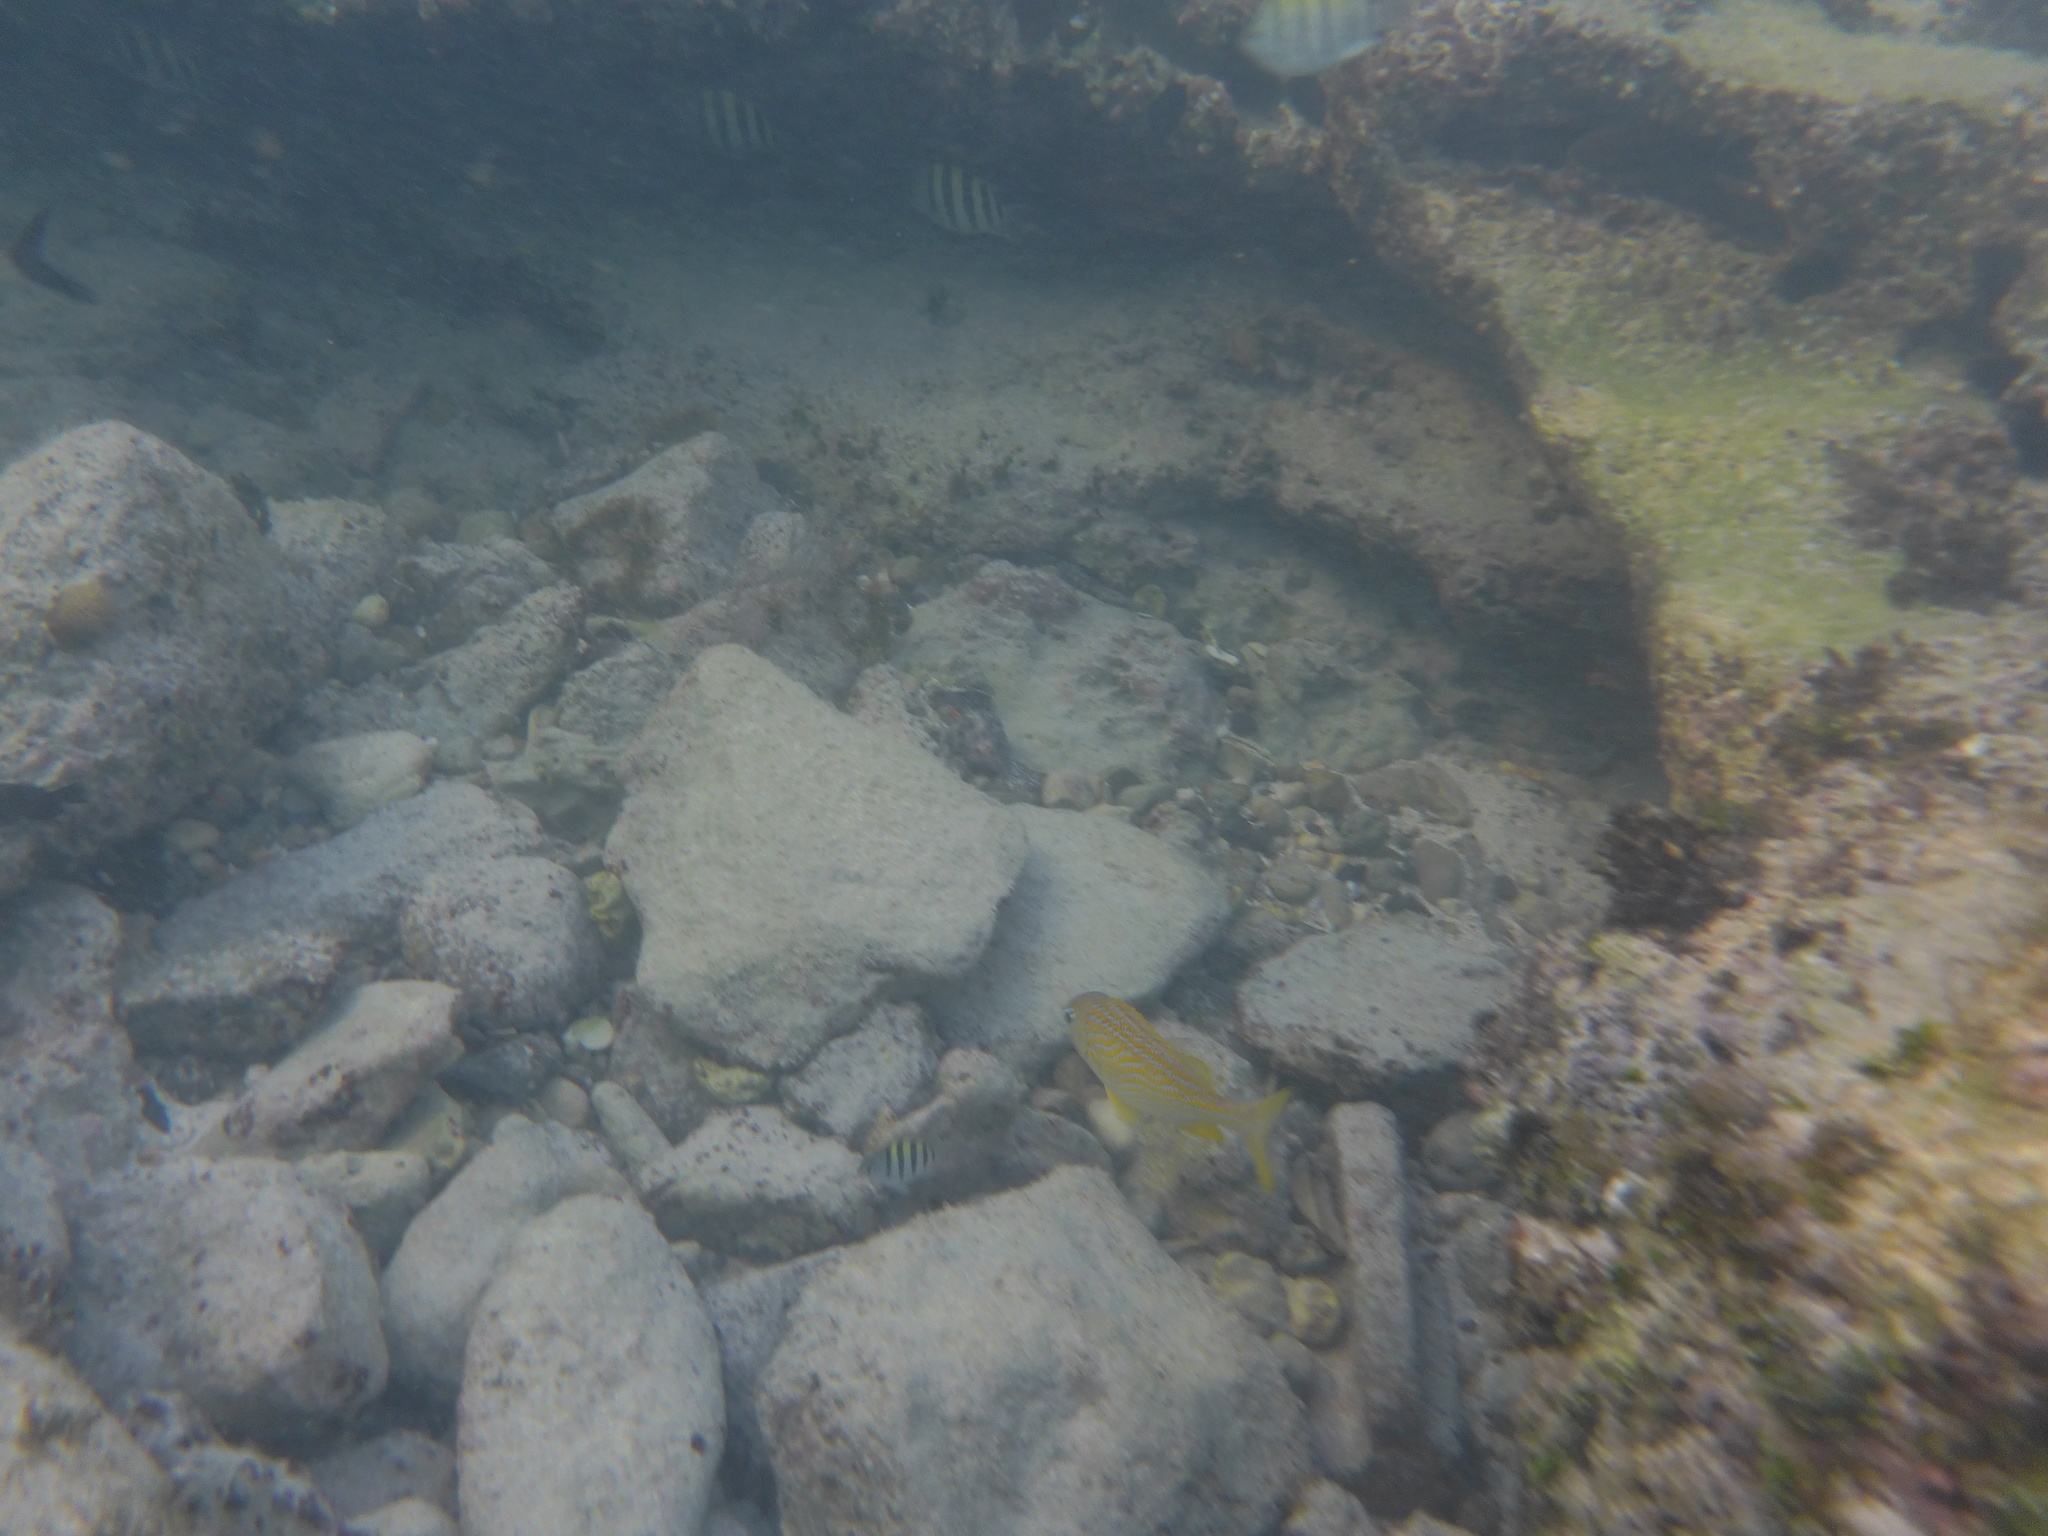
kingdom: Animalia
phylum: Chordata
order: Perciformes
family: Haemulidae
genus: Haemulon
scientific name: Haemulon flavolineatum
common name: French grunt
